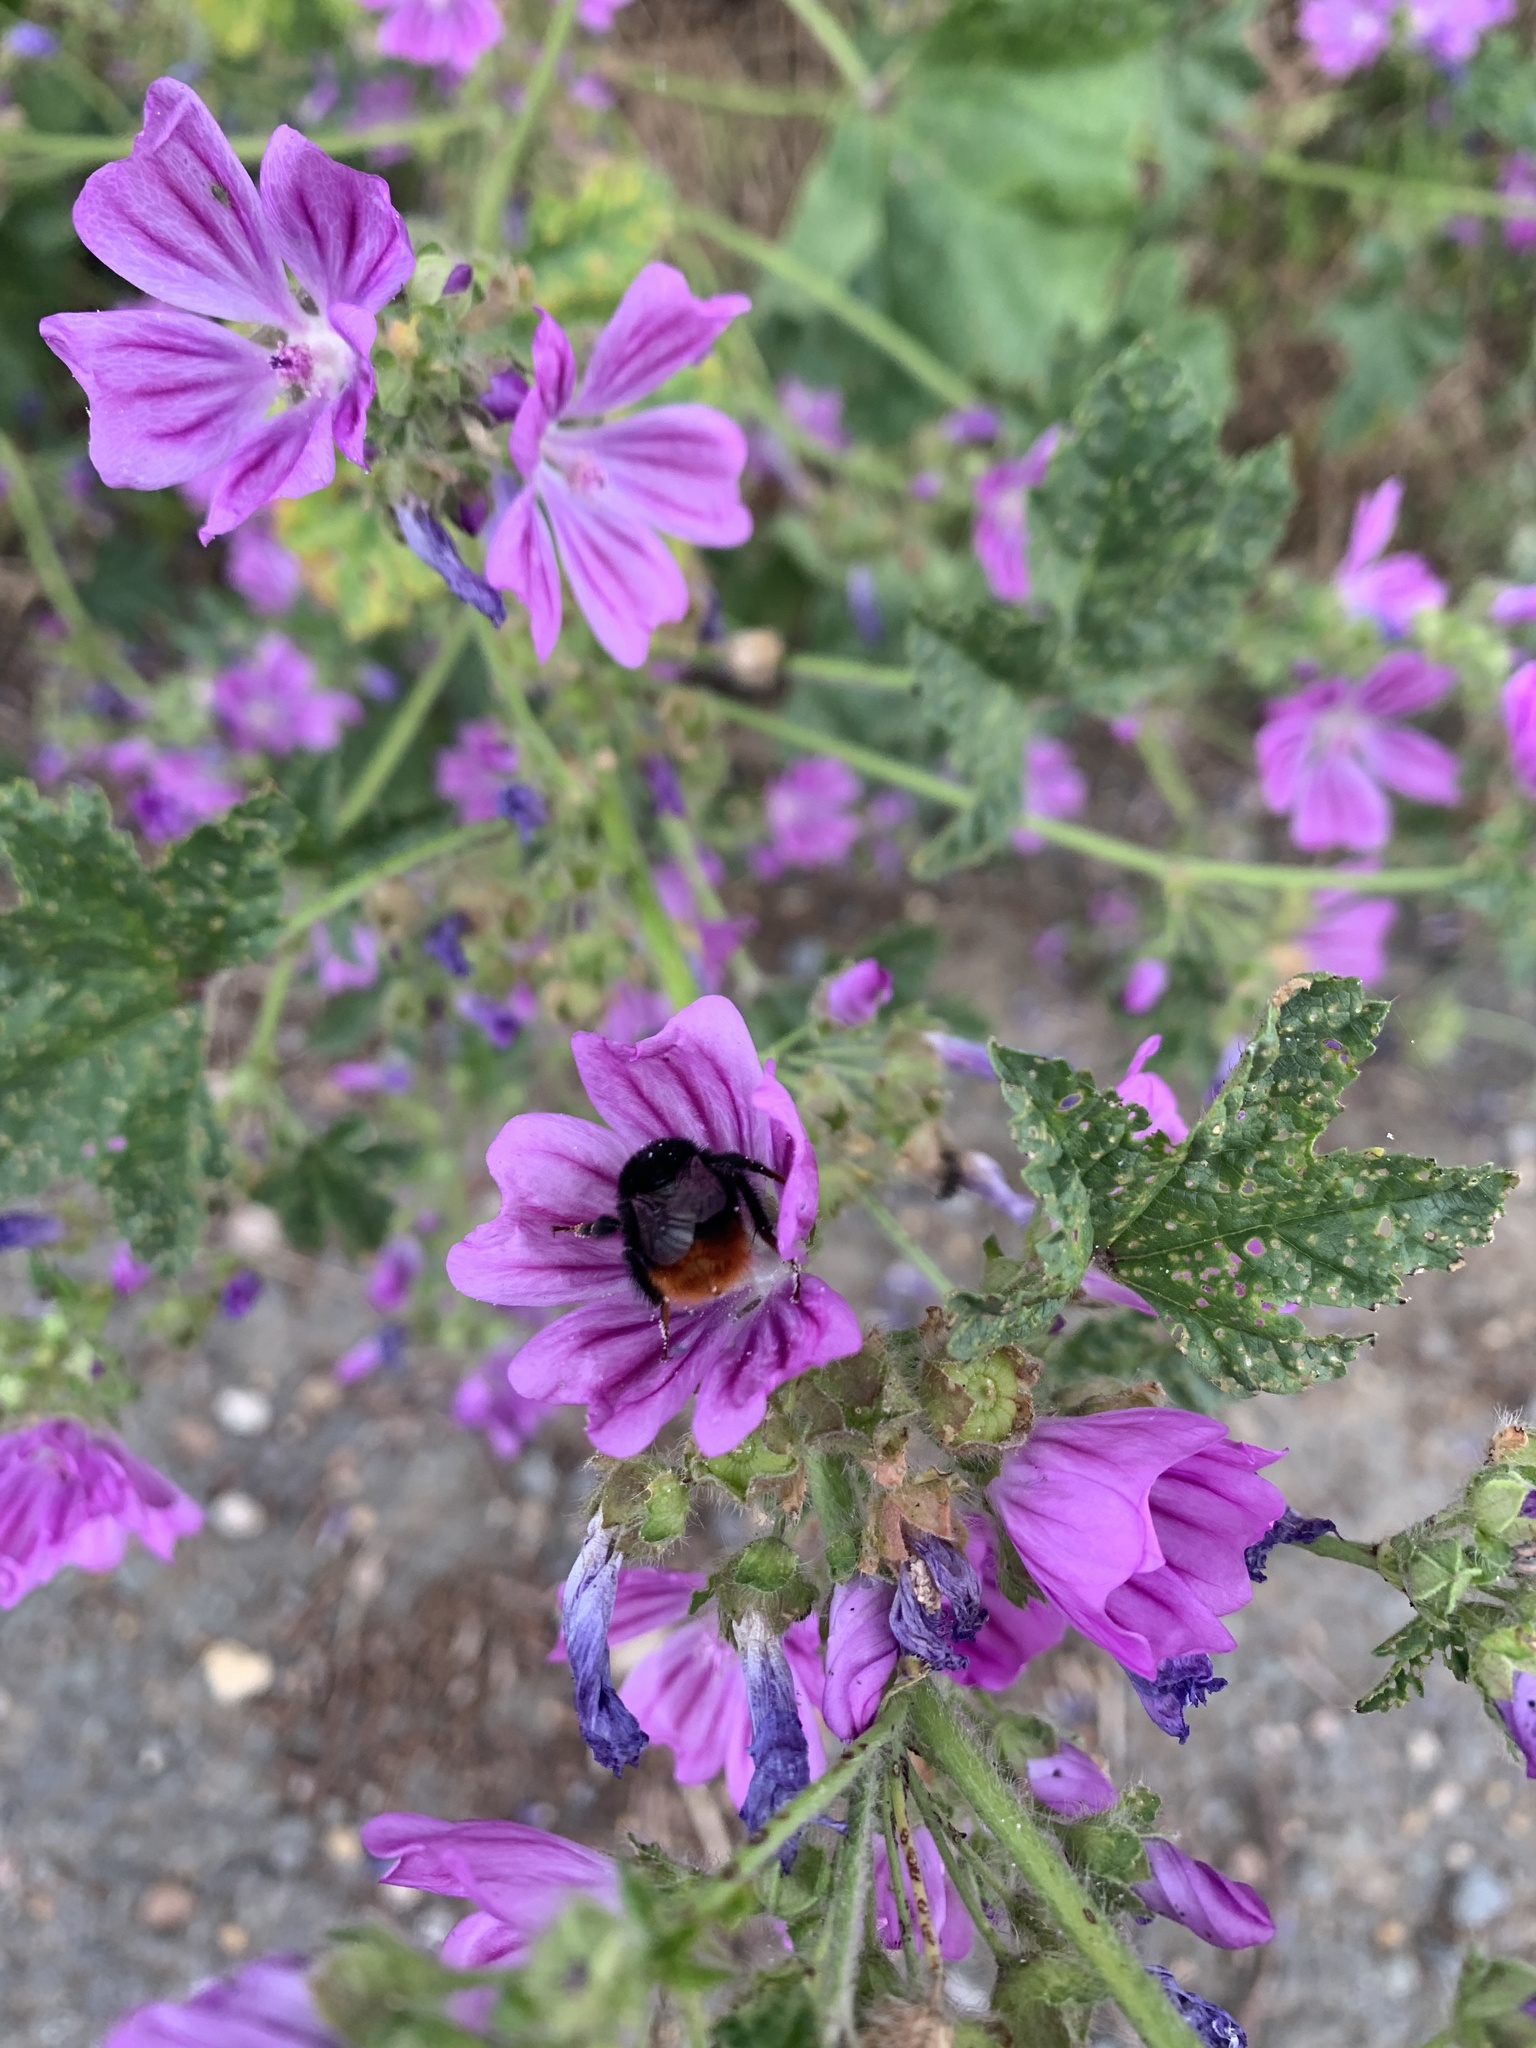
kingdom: Animalia
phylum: Arthropoda
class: Insecta
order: Hymenoptera
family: Apidae
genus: Bombus
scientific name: Bombus lapidarius
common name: Large red-tailed humble-bee
